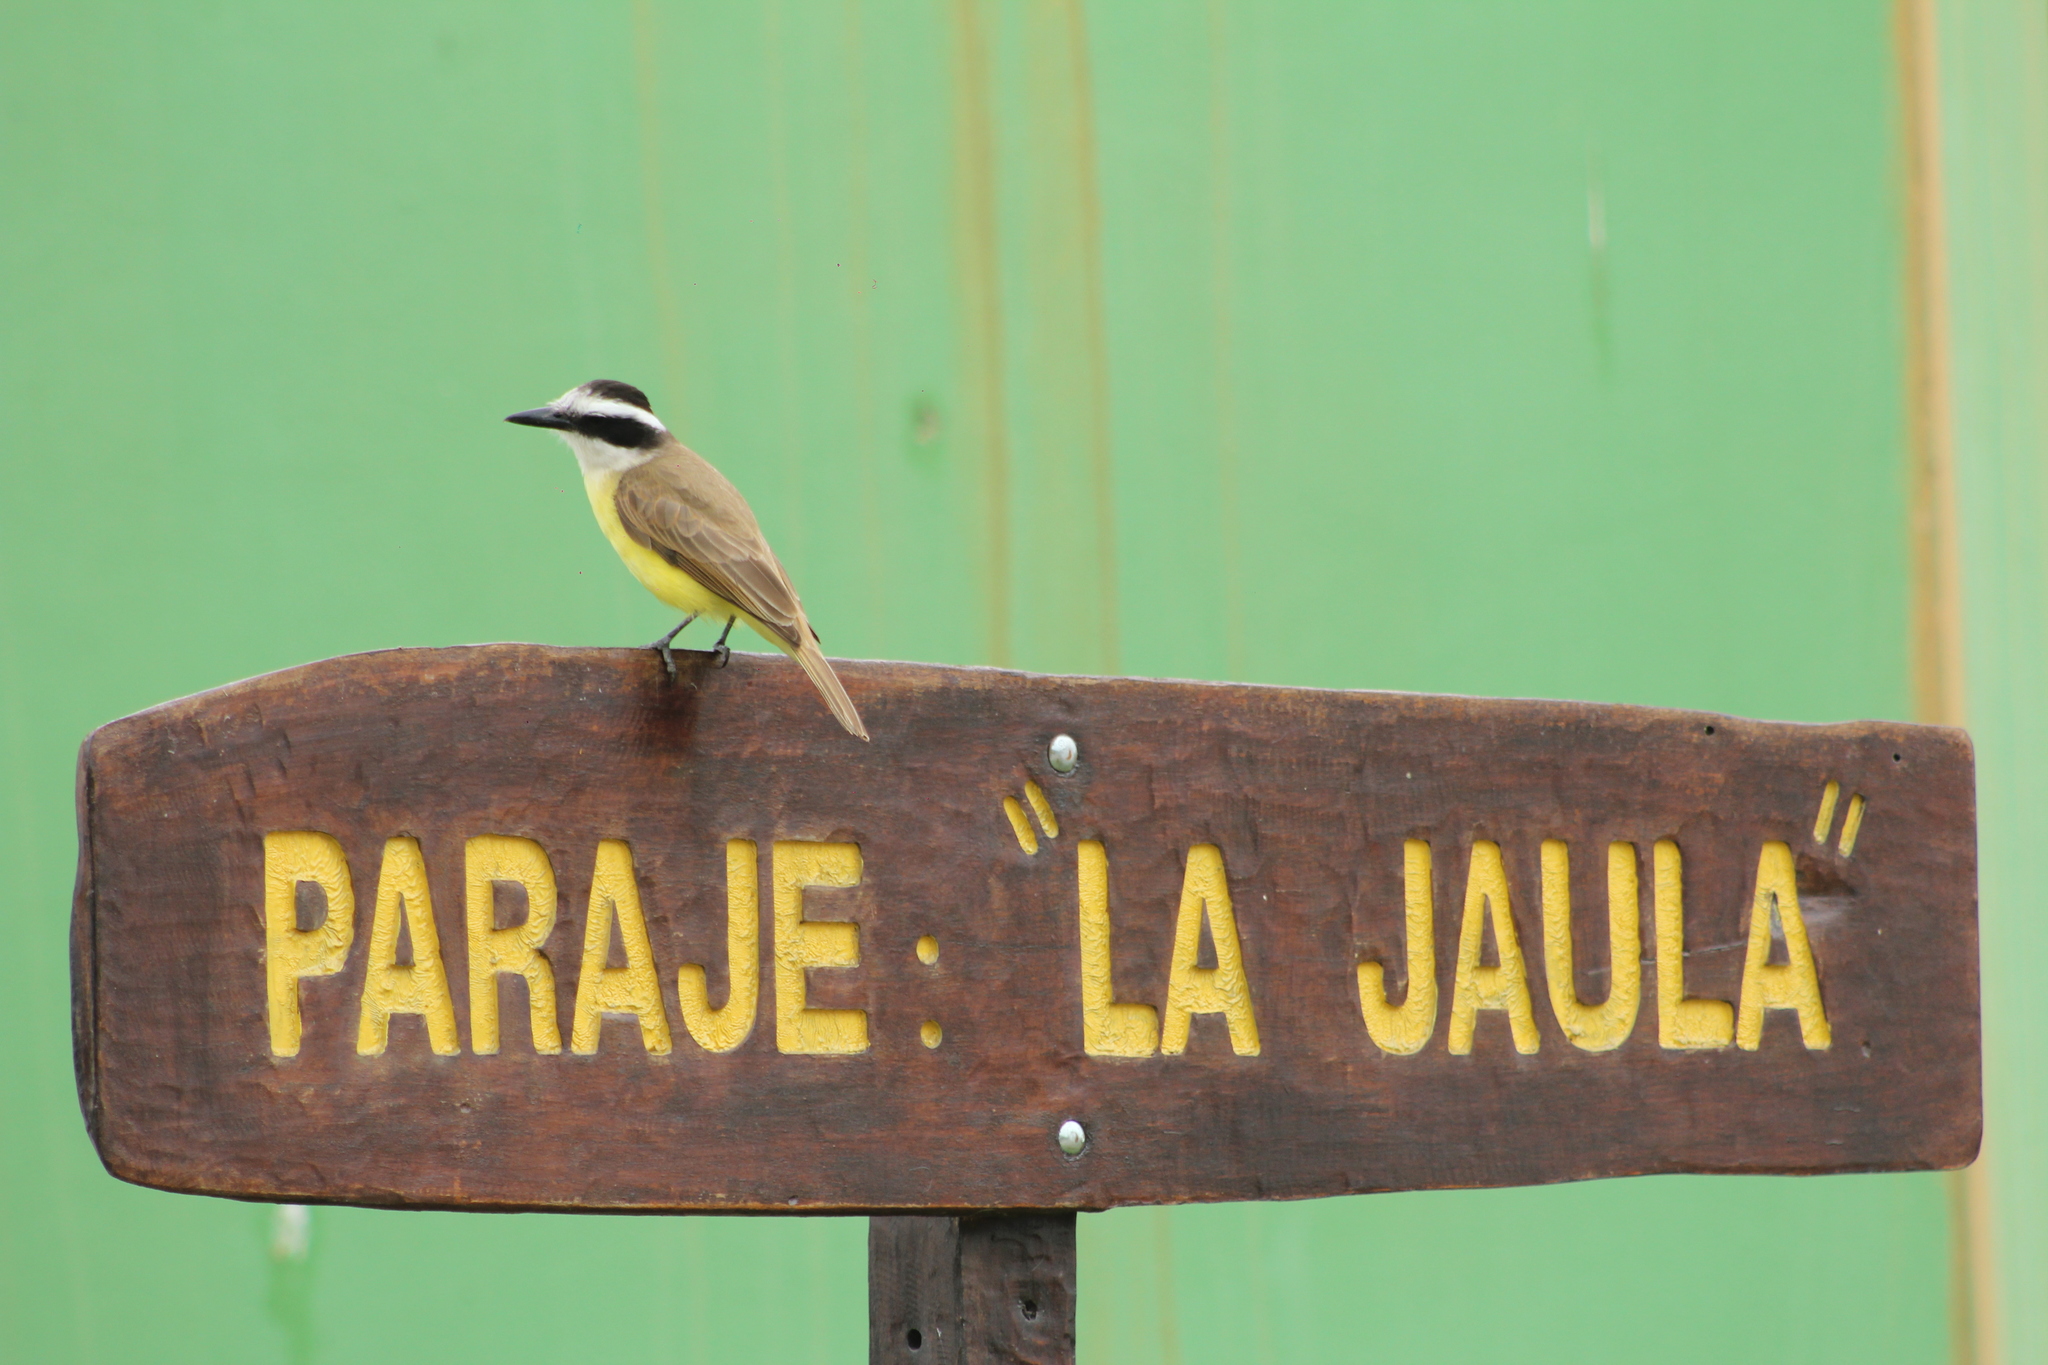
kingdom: Animalia
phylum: Chordata
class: Aves
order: Passeriformes
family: Tyrannidae
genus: Pitangus
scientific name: Pitangus sulphuratus
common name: Great kiskadee
